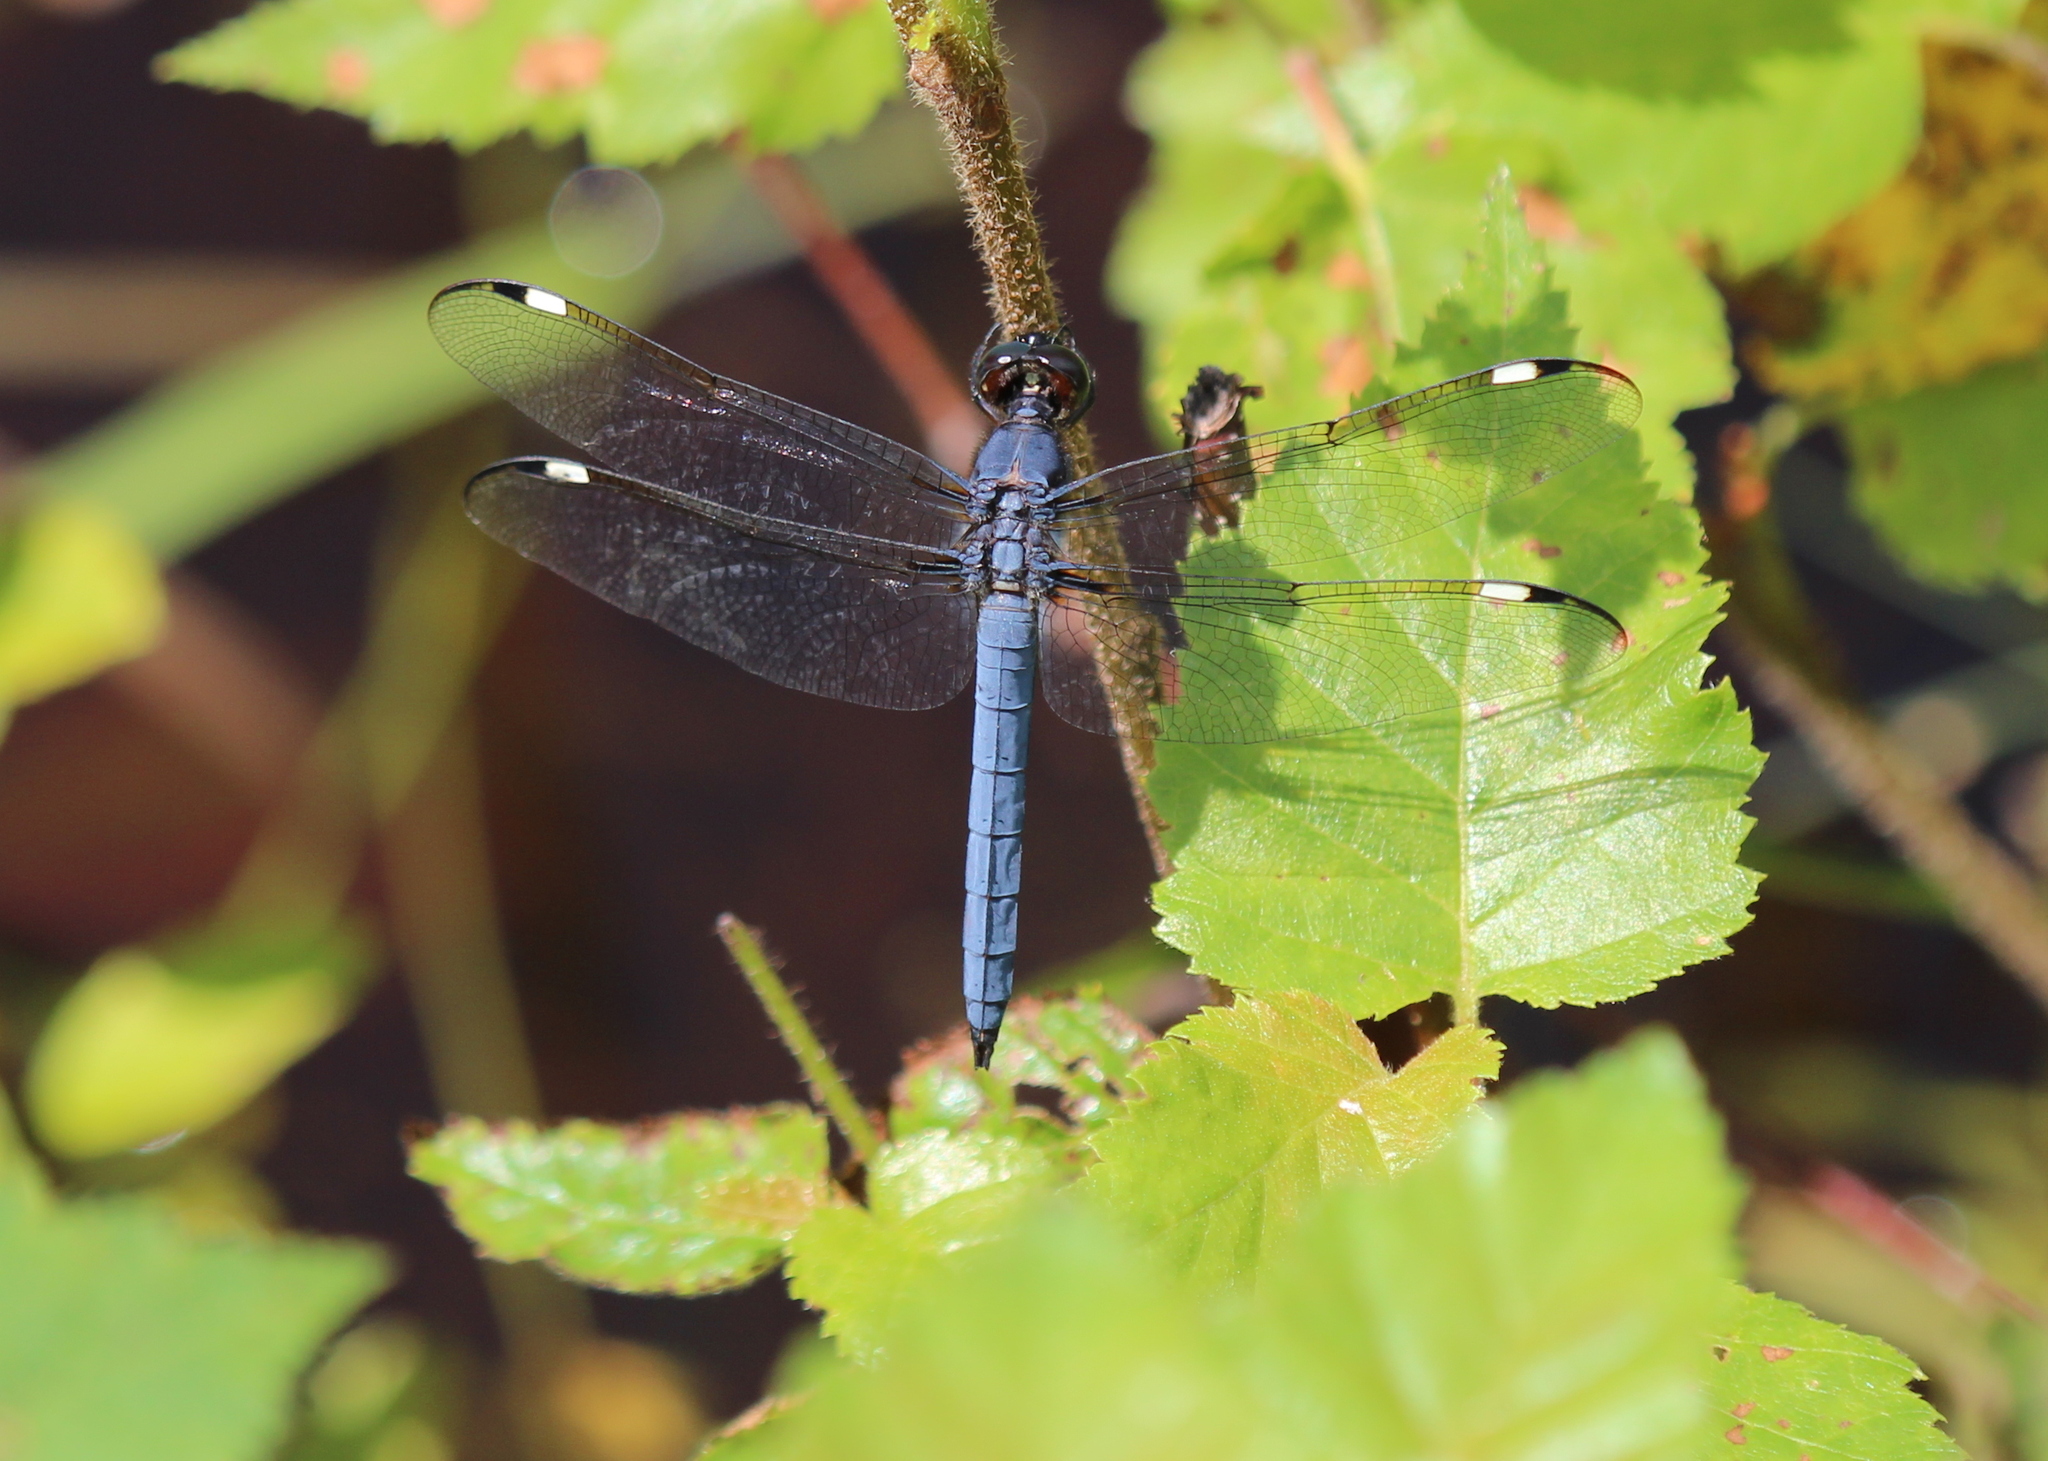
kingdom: Animalia
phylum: Arthropoda
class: Insecta
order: Odonata
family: Libellulidae
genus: Libellula
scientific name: Libellula cyanea
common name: Spangled skimmer
